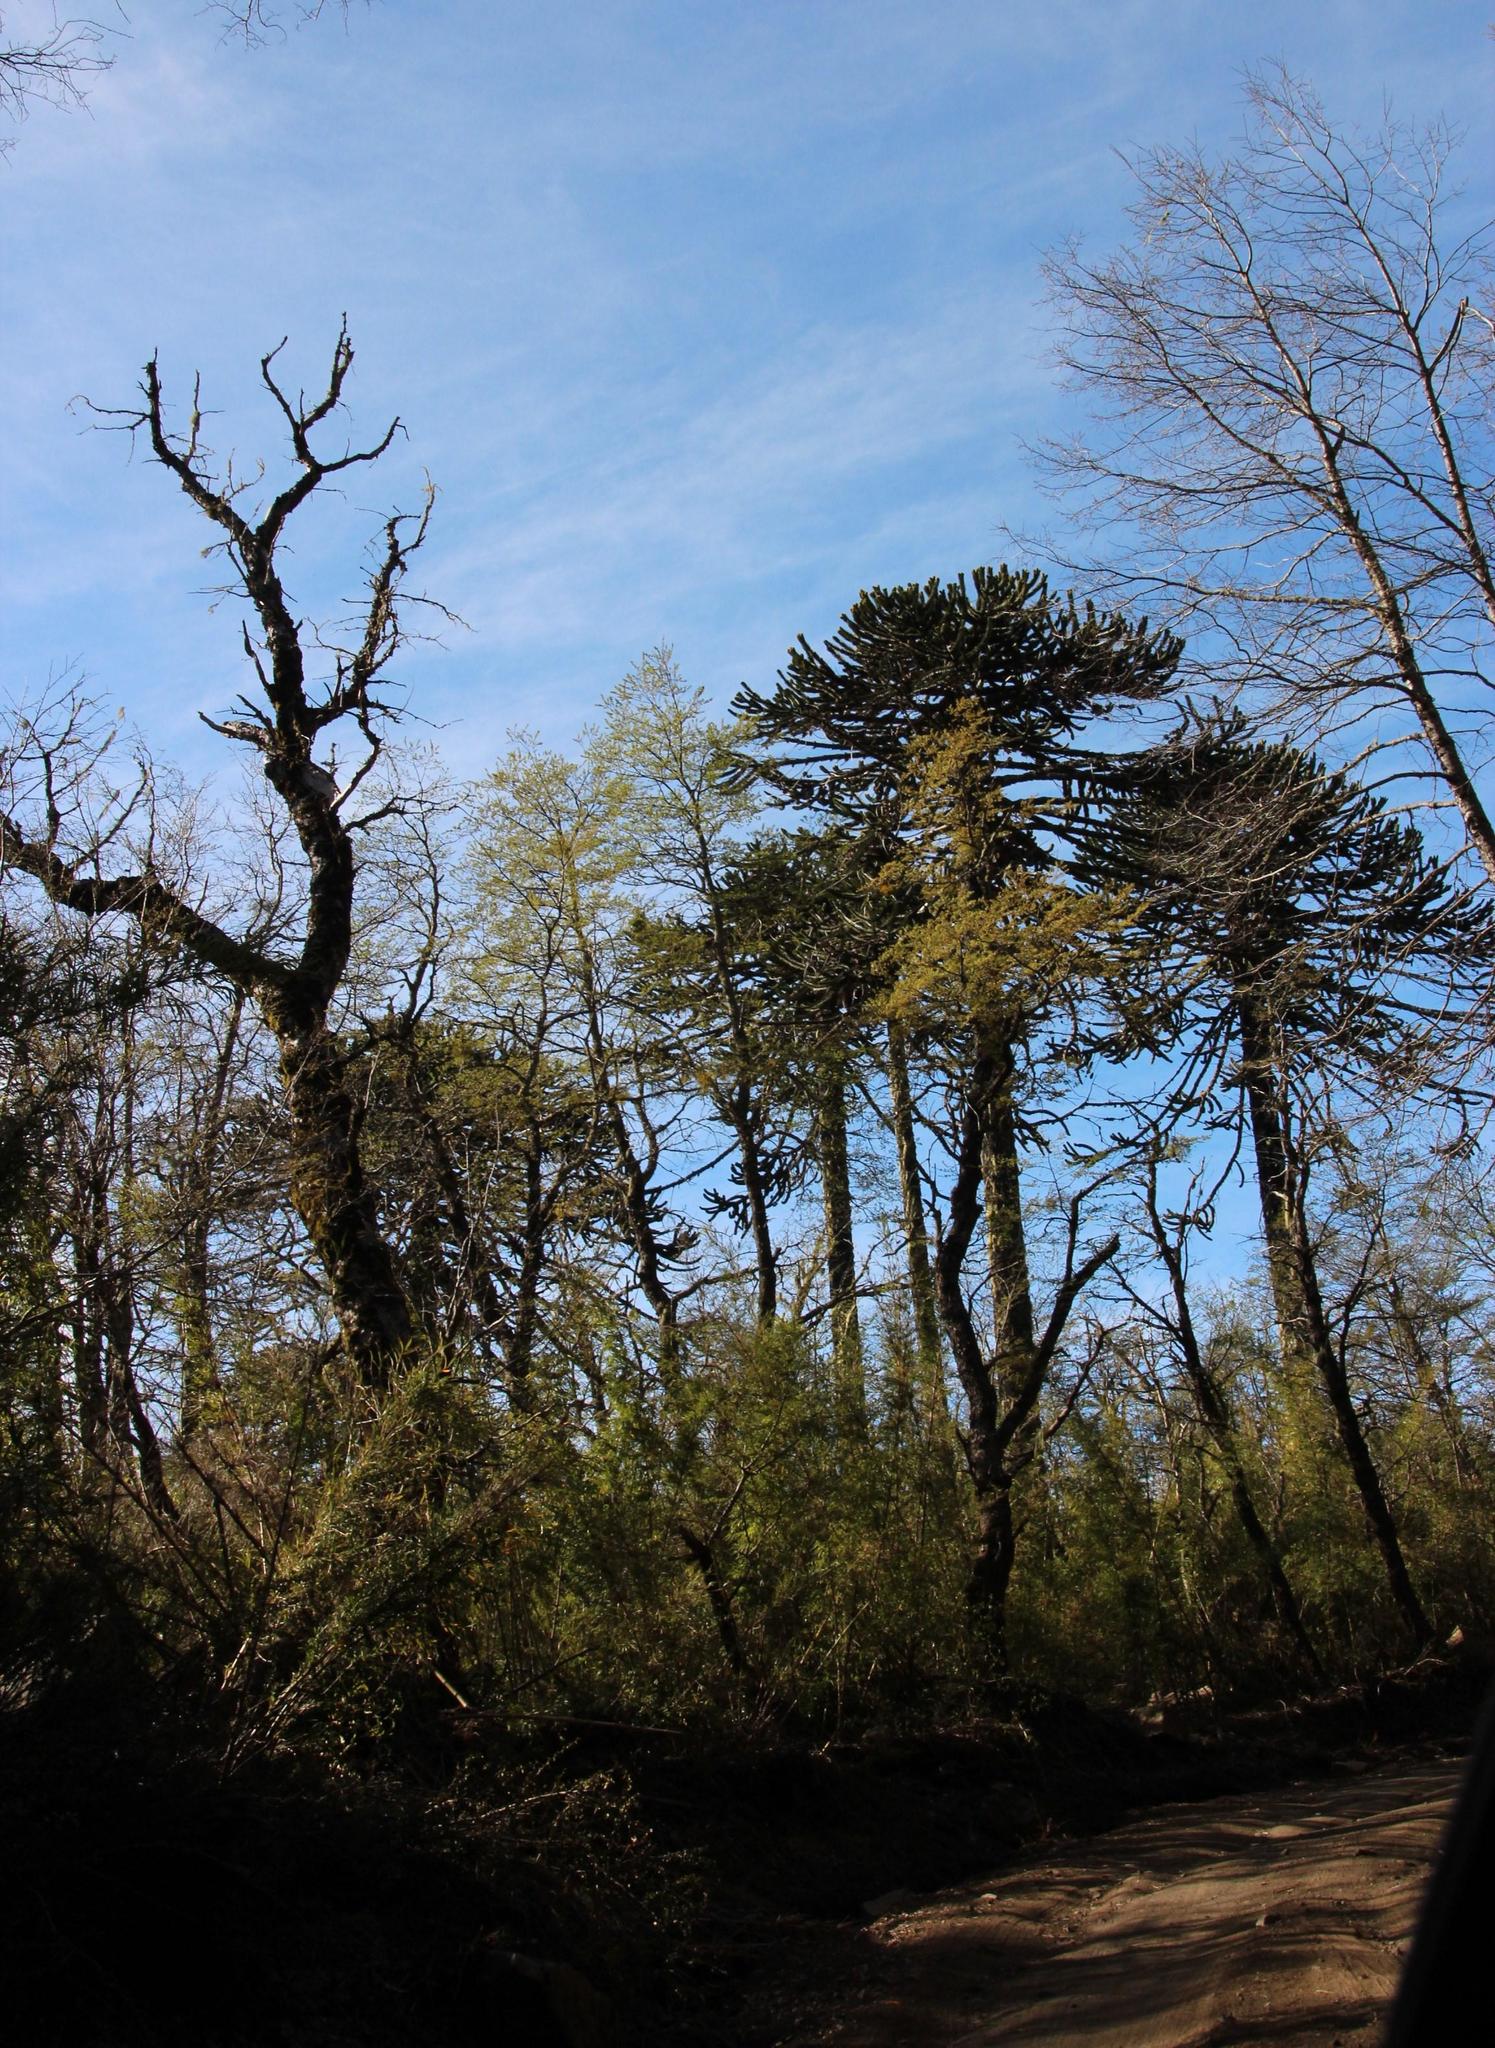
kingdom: Plantae
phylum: Tracheophyta
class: Pinopsida
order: Pinales
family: Araucariaceae
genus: Araucaria
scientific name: Araucaria araucana
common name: Monkey-puzzle
